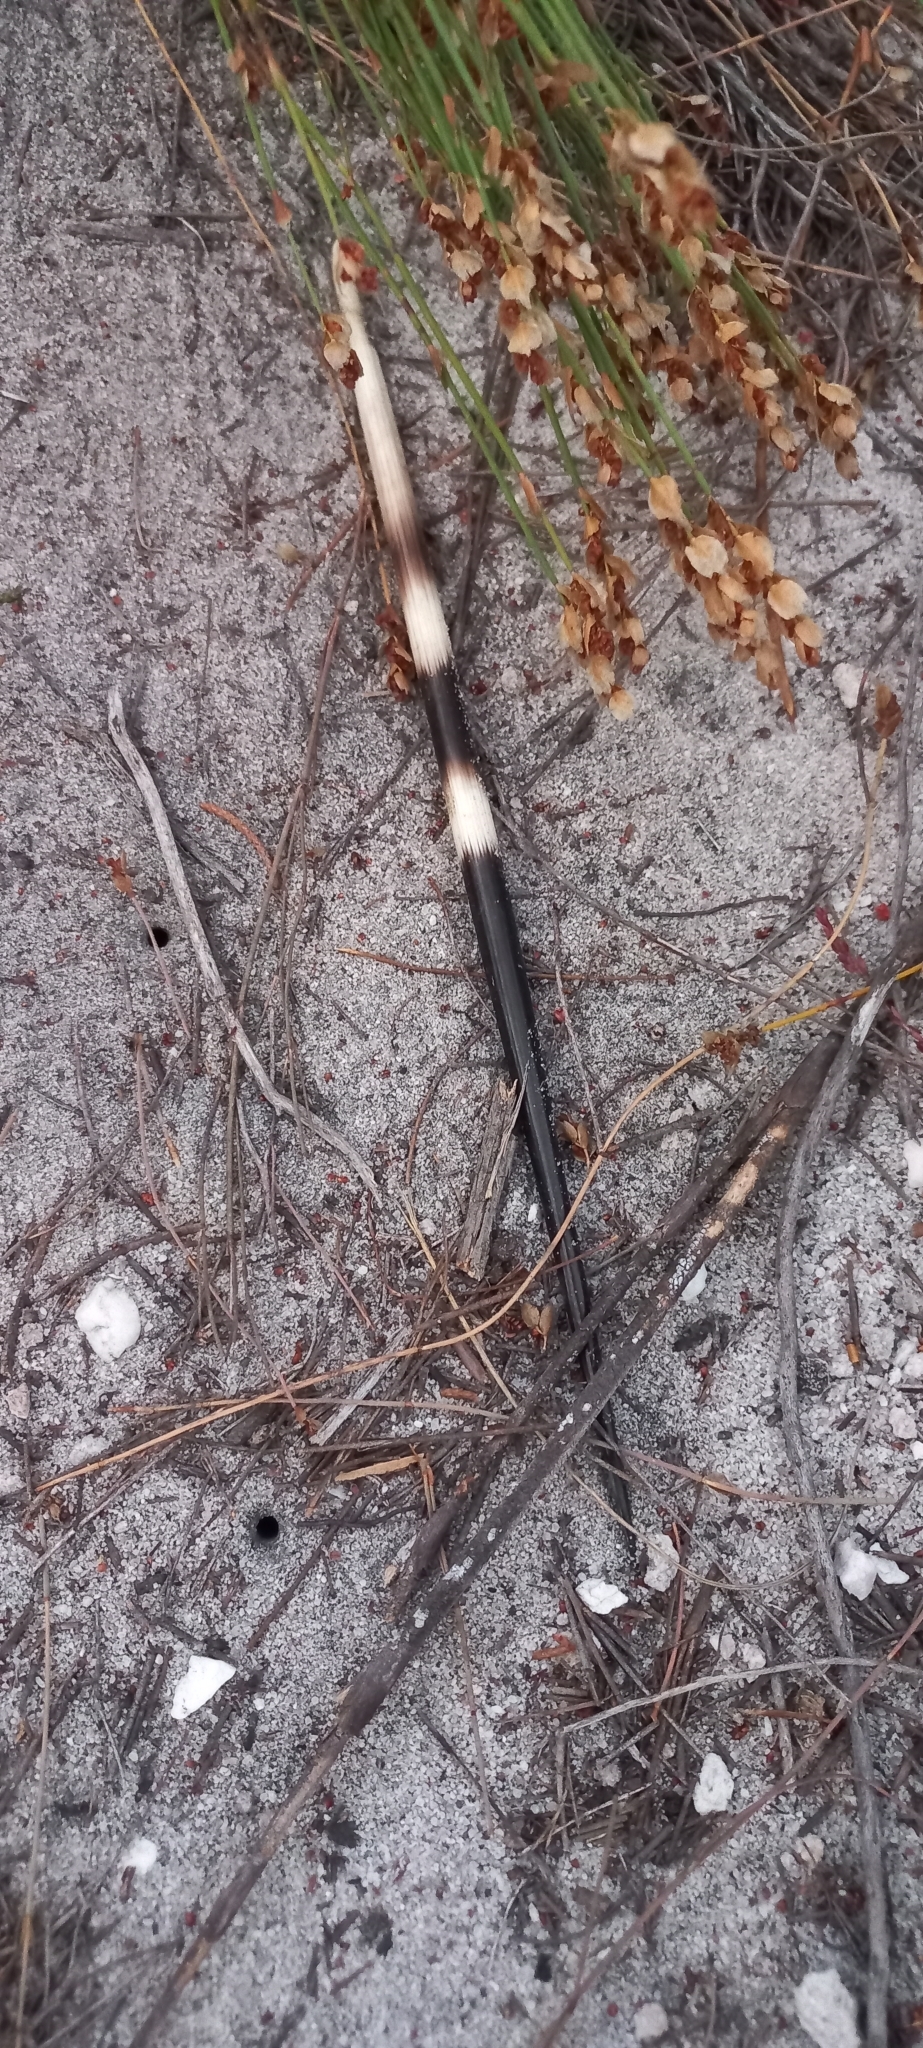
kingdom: Animalia
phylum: Chordata
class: Mammalia
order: Rodentia
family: Hystricidae
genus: Hystrix
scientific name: Hystrix africaeaustralis
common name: Cape porcupine
